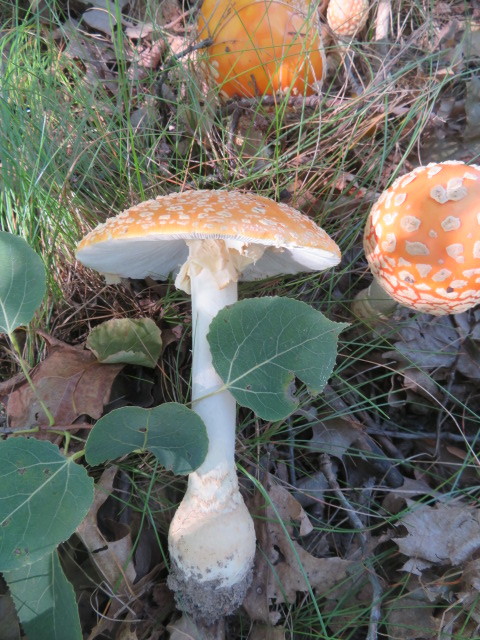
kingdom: Fungi
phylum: Basidiomycota
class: Agaricomycetes
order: Agaricales
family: Amanitaceae
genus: Amanita
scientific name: Amanita muscaria
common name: Fly agaric
